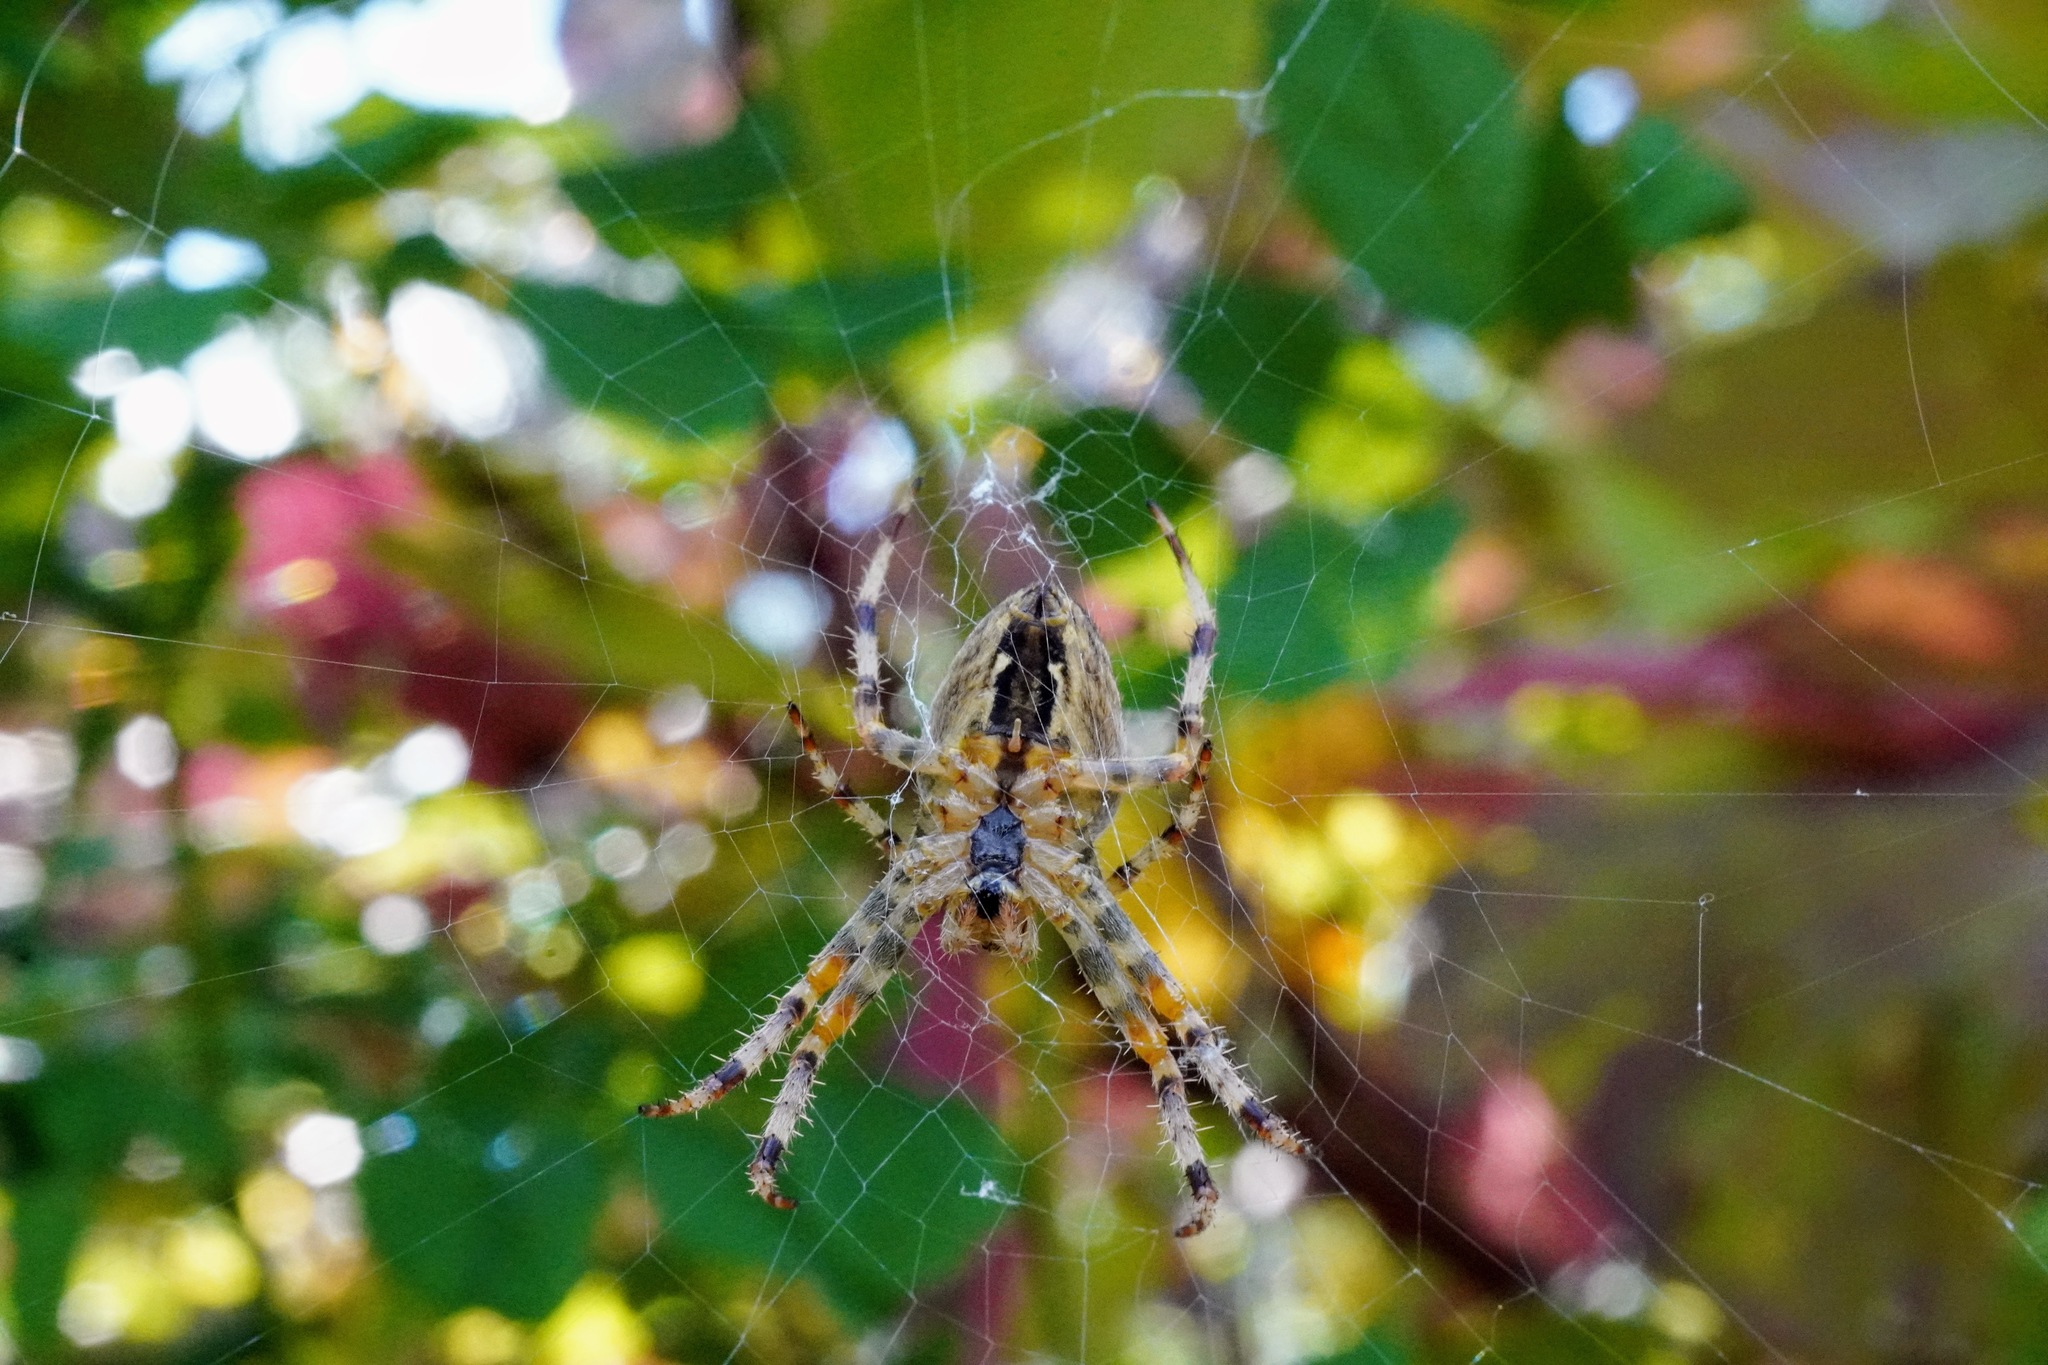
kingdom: Animalia
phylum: Arthropoda
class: Arachnida
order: Araneae
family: Araneidae
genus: Araneus
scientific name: Araneus diadematus
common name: Cross orbweaver
